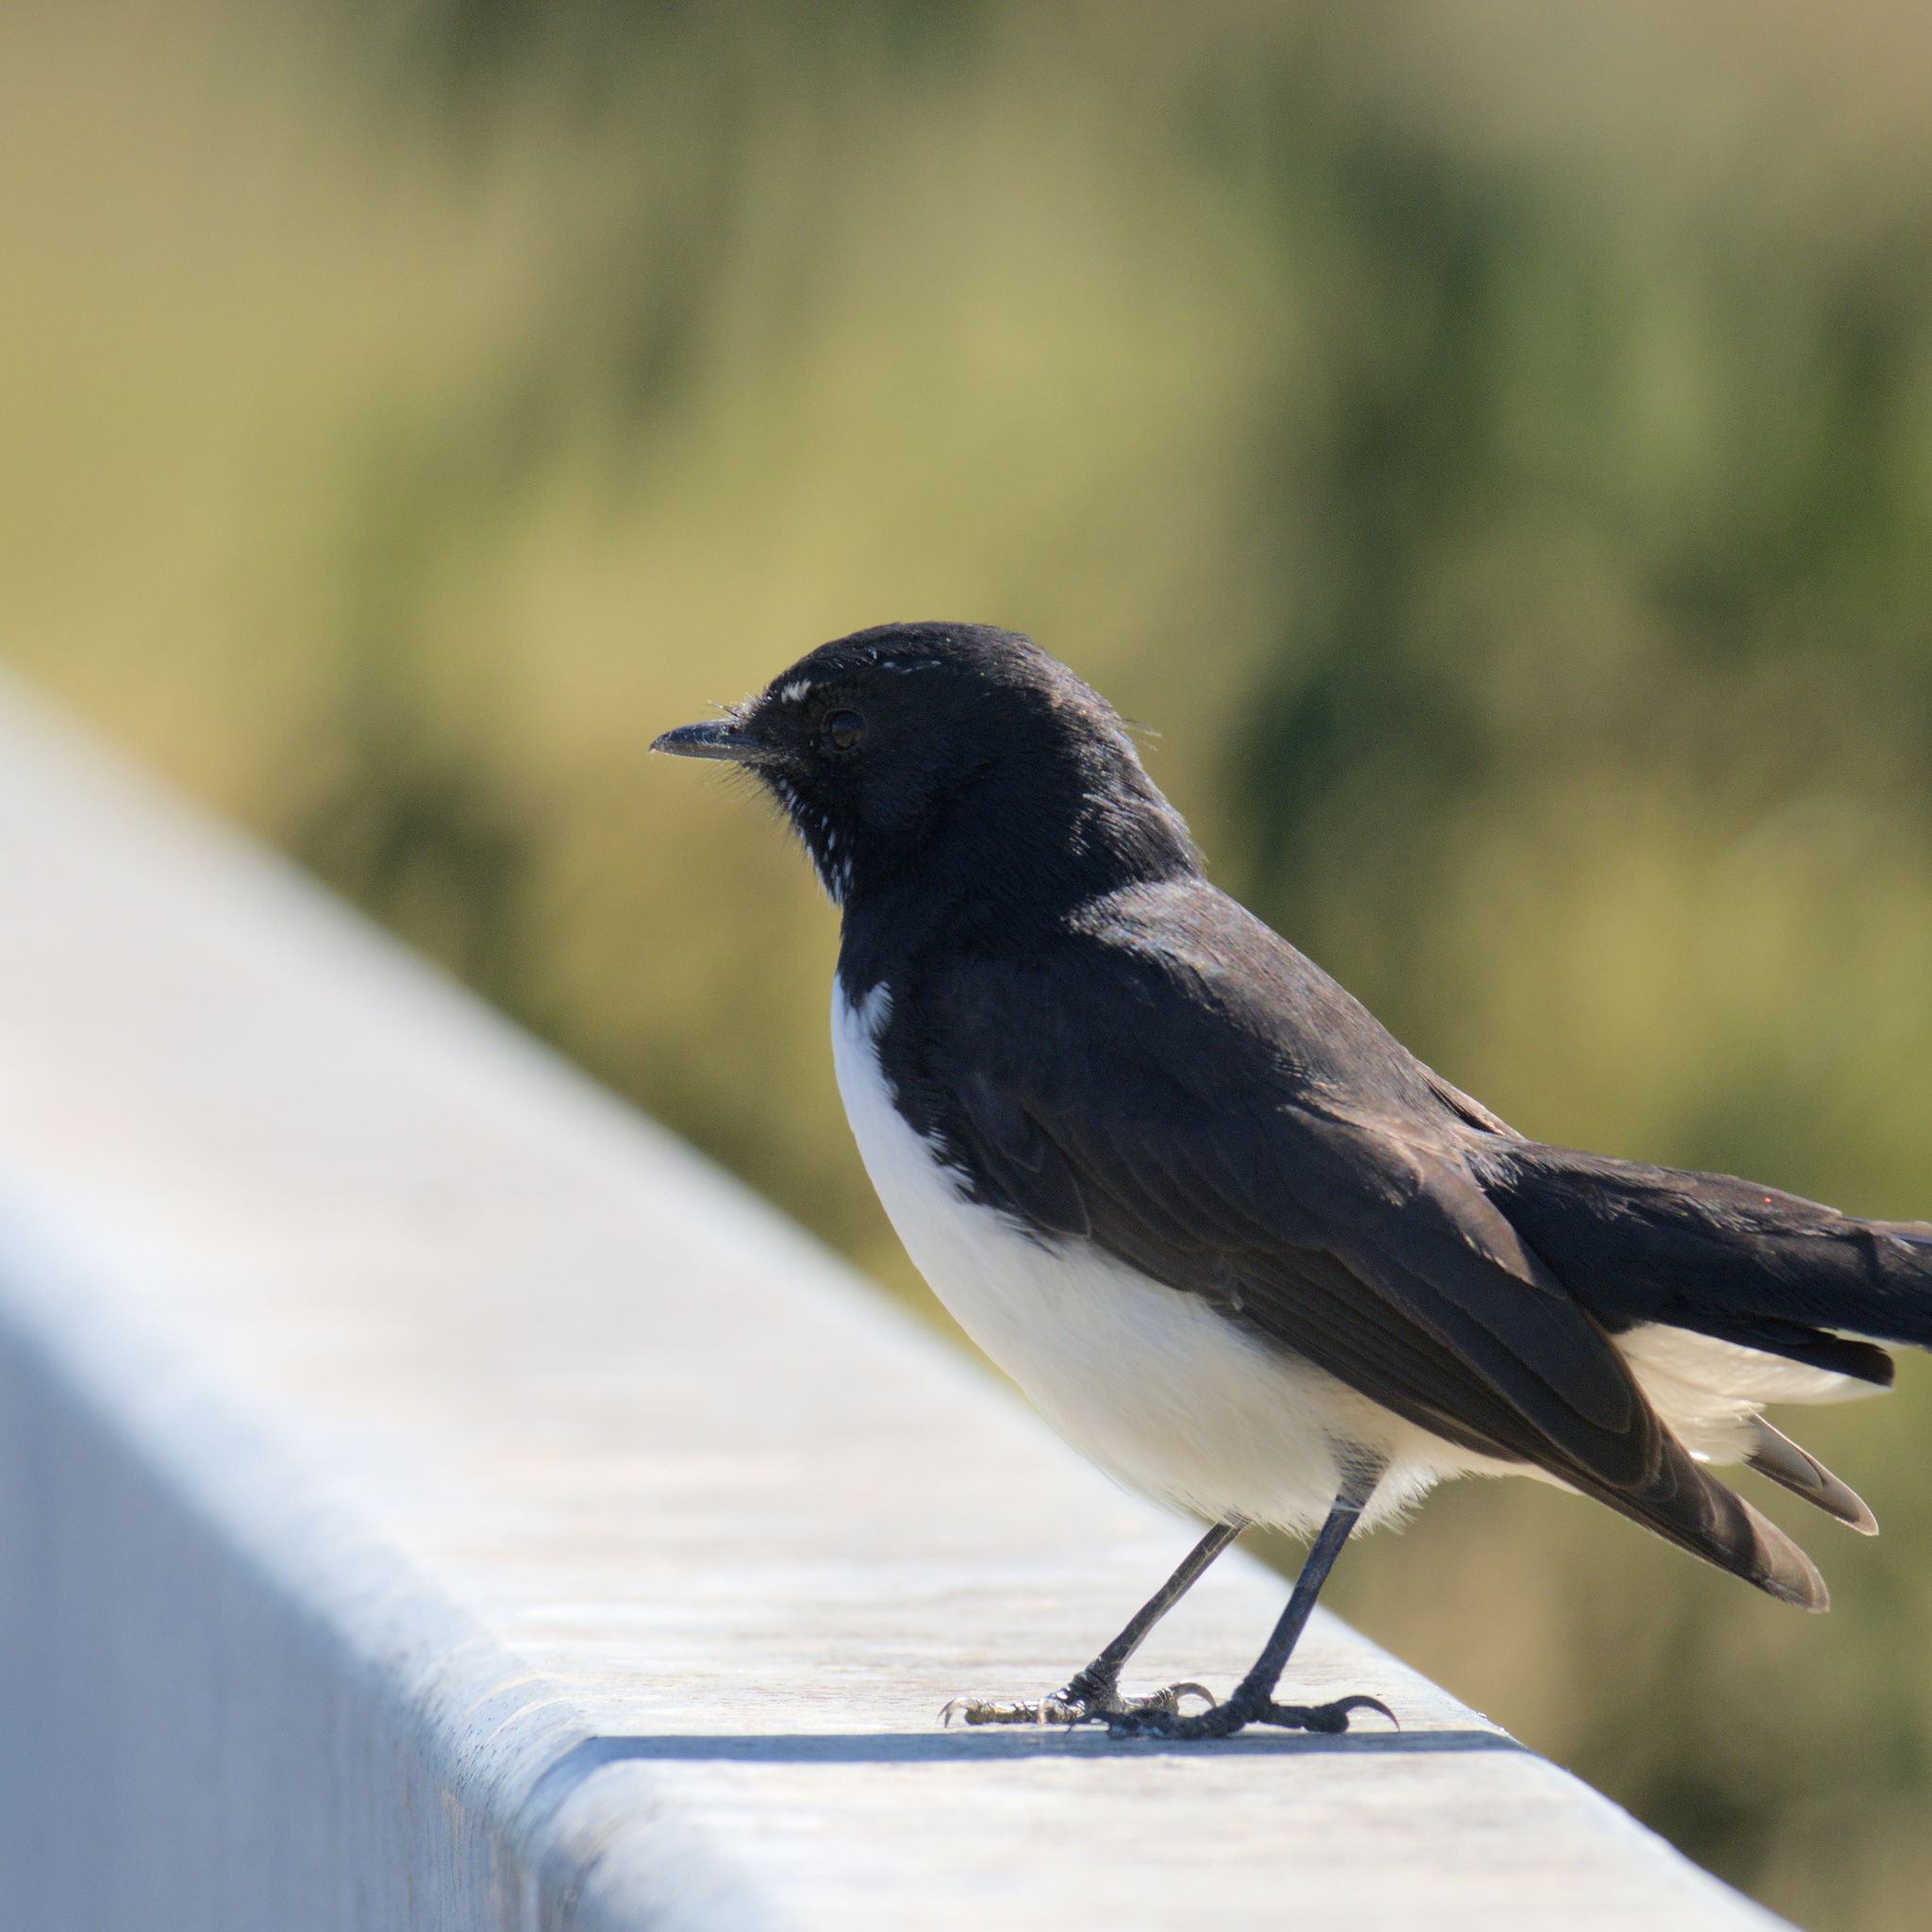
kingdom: Animalia
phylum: Chordata
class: Aves
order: Passeriformes
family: Rhipiduridae
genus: Rhipidura
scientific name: Rhipidura leucophrys
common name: Willie wagtail
